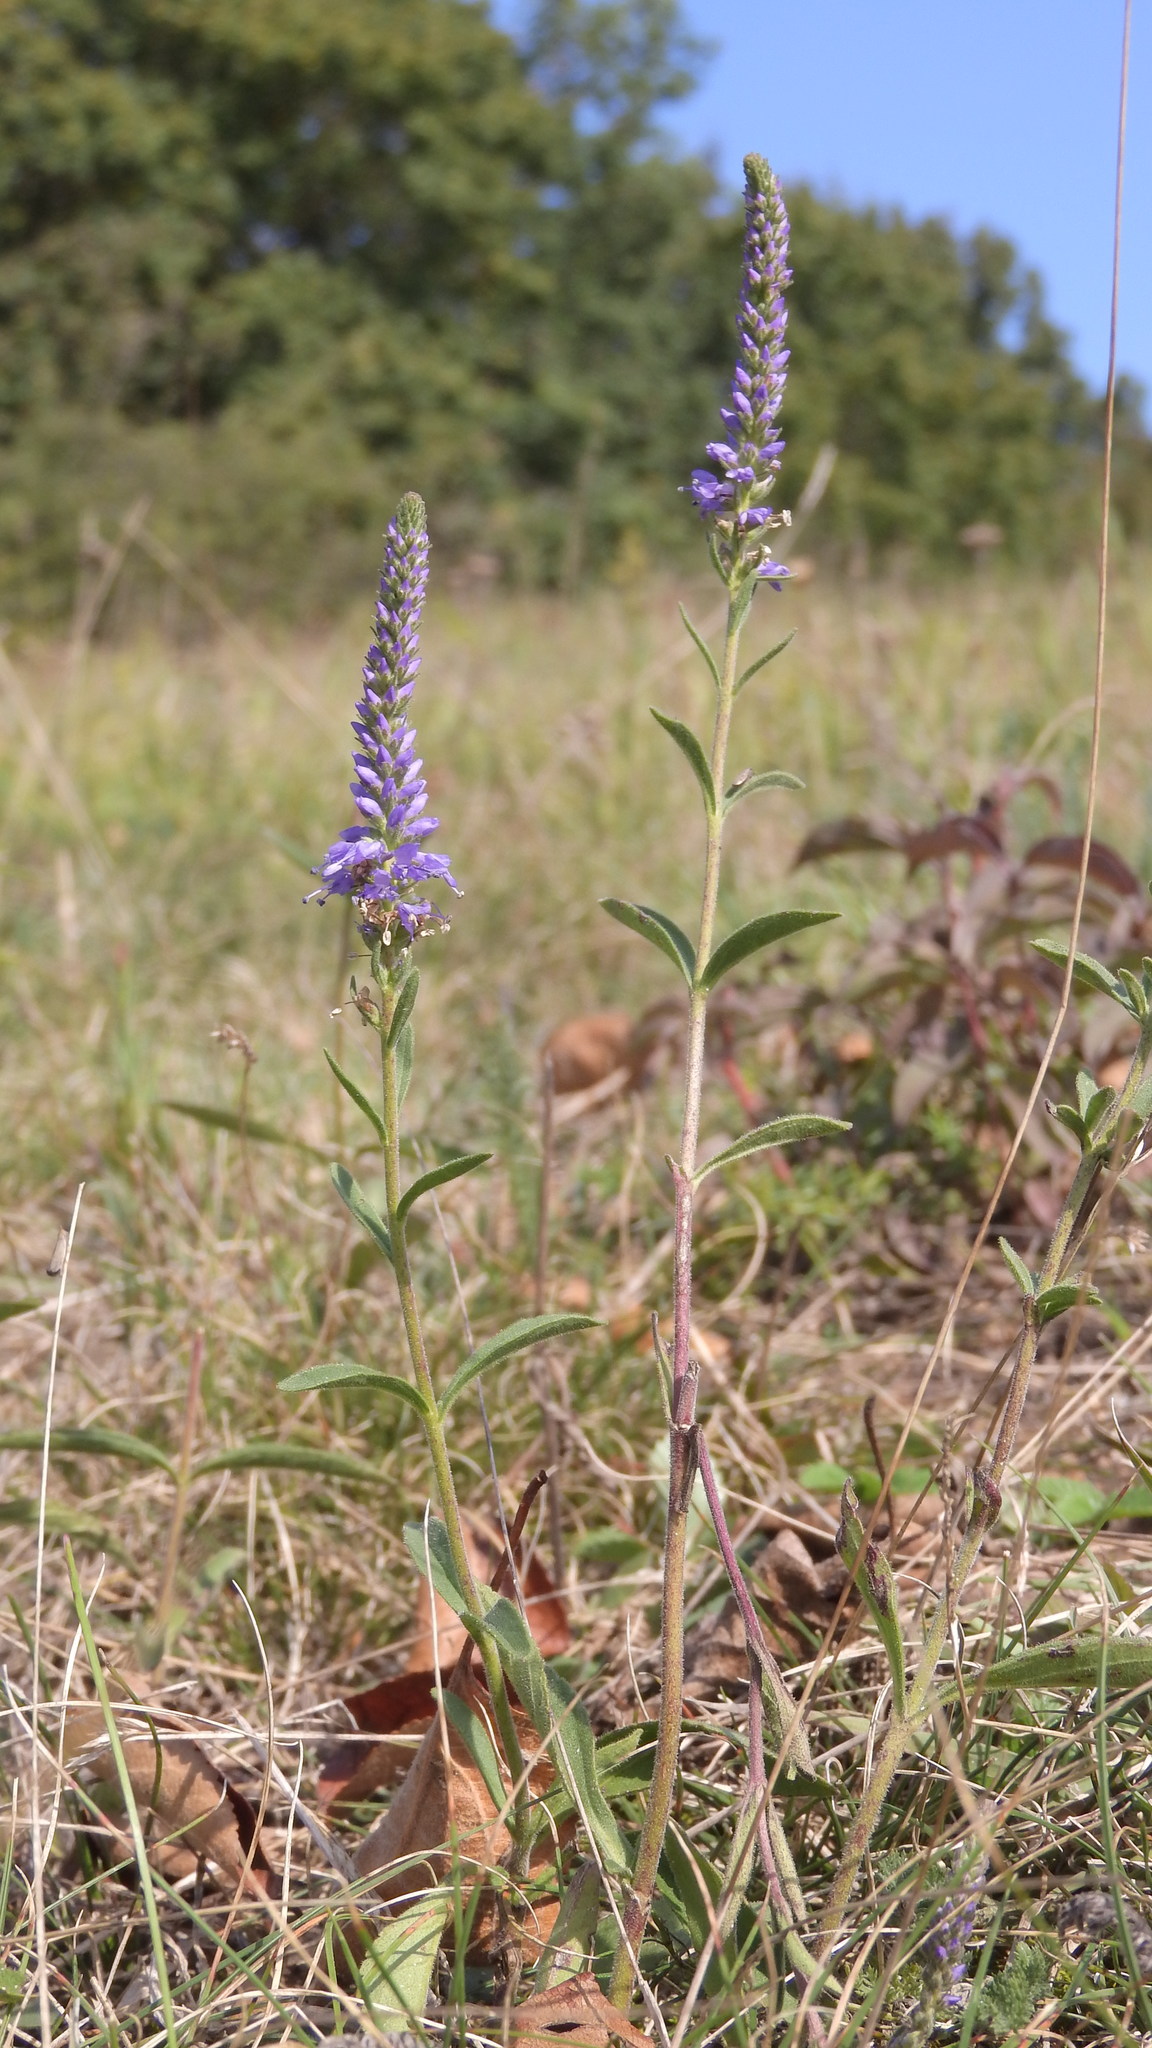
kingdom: Plantae
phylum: Tracheophyta
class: Magnoliopsida
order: Lamiales
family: Plantaginaceae
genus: Veronica
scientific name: Veronica spicata
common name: Spiked speedwell
